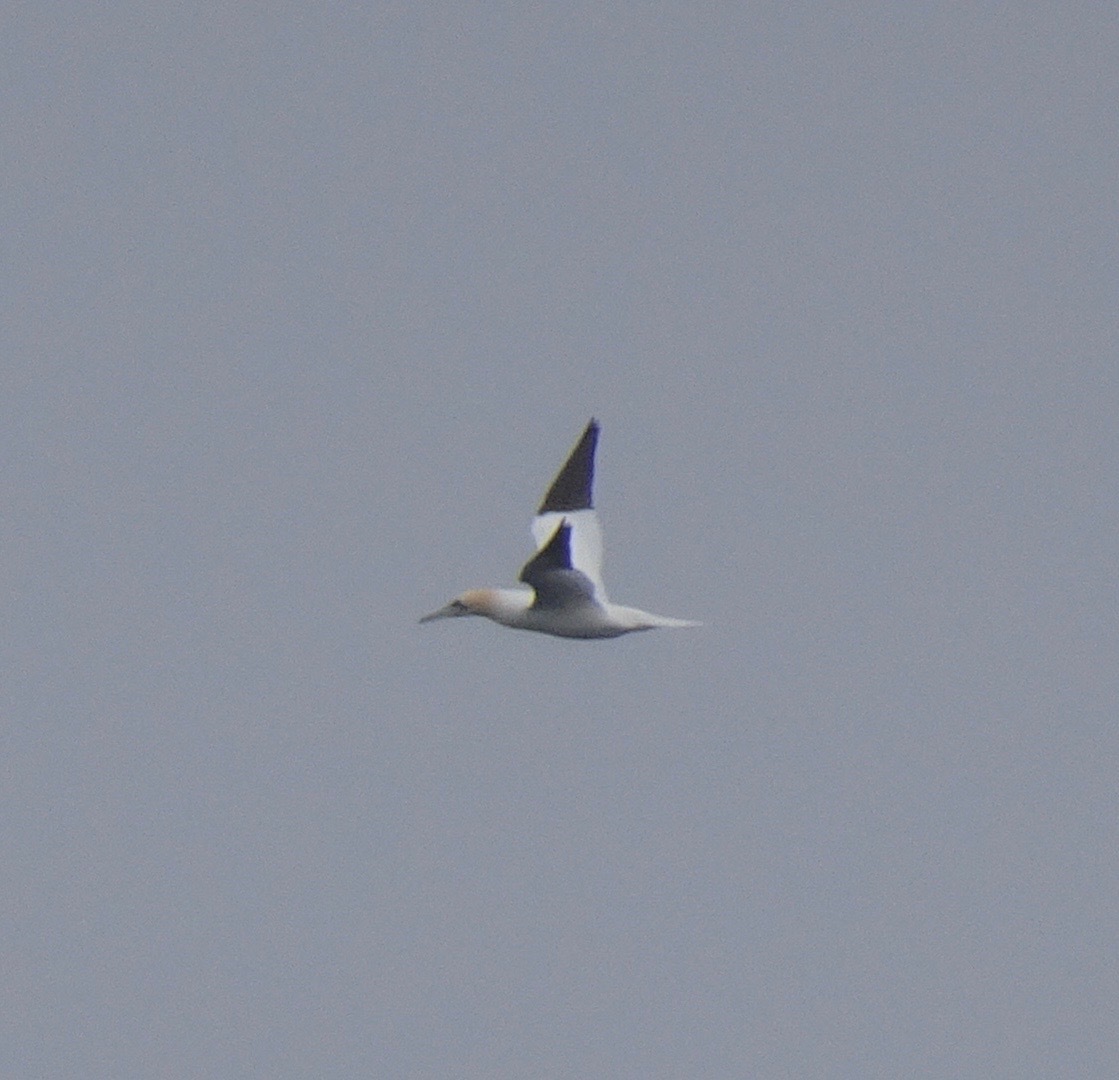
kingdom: Animalia
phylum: Chordata
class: Aves
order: Suliformes
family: Sulidae
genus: Morus
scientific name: Morus bassanus
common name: Northern gannet
